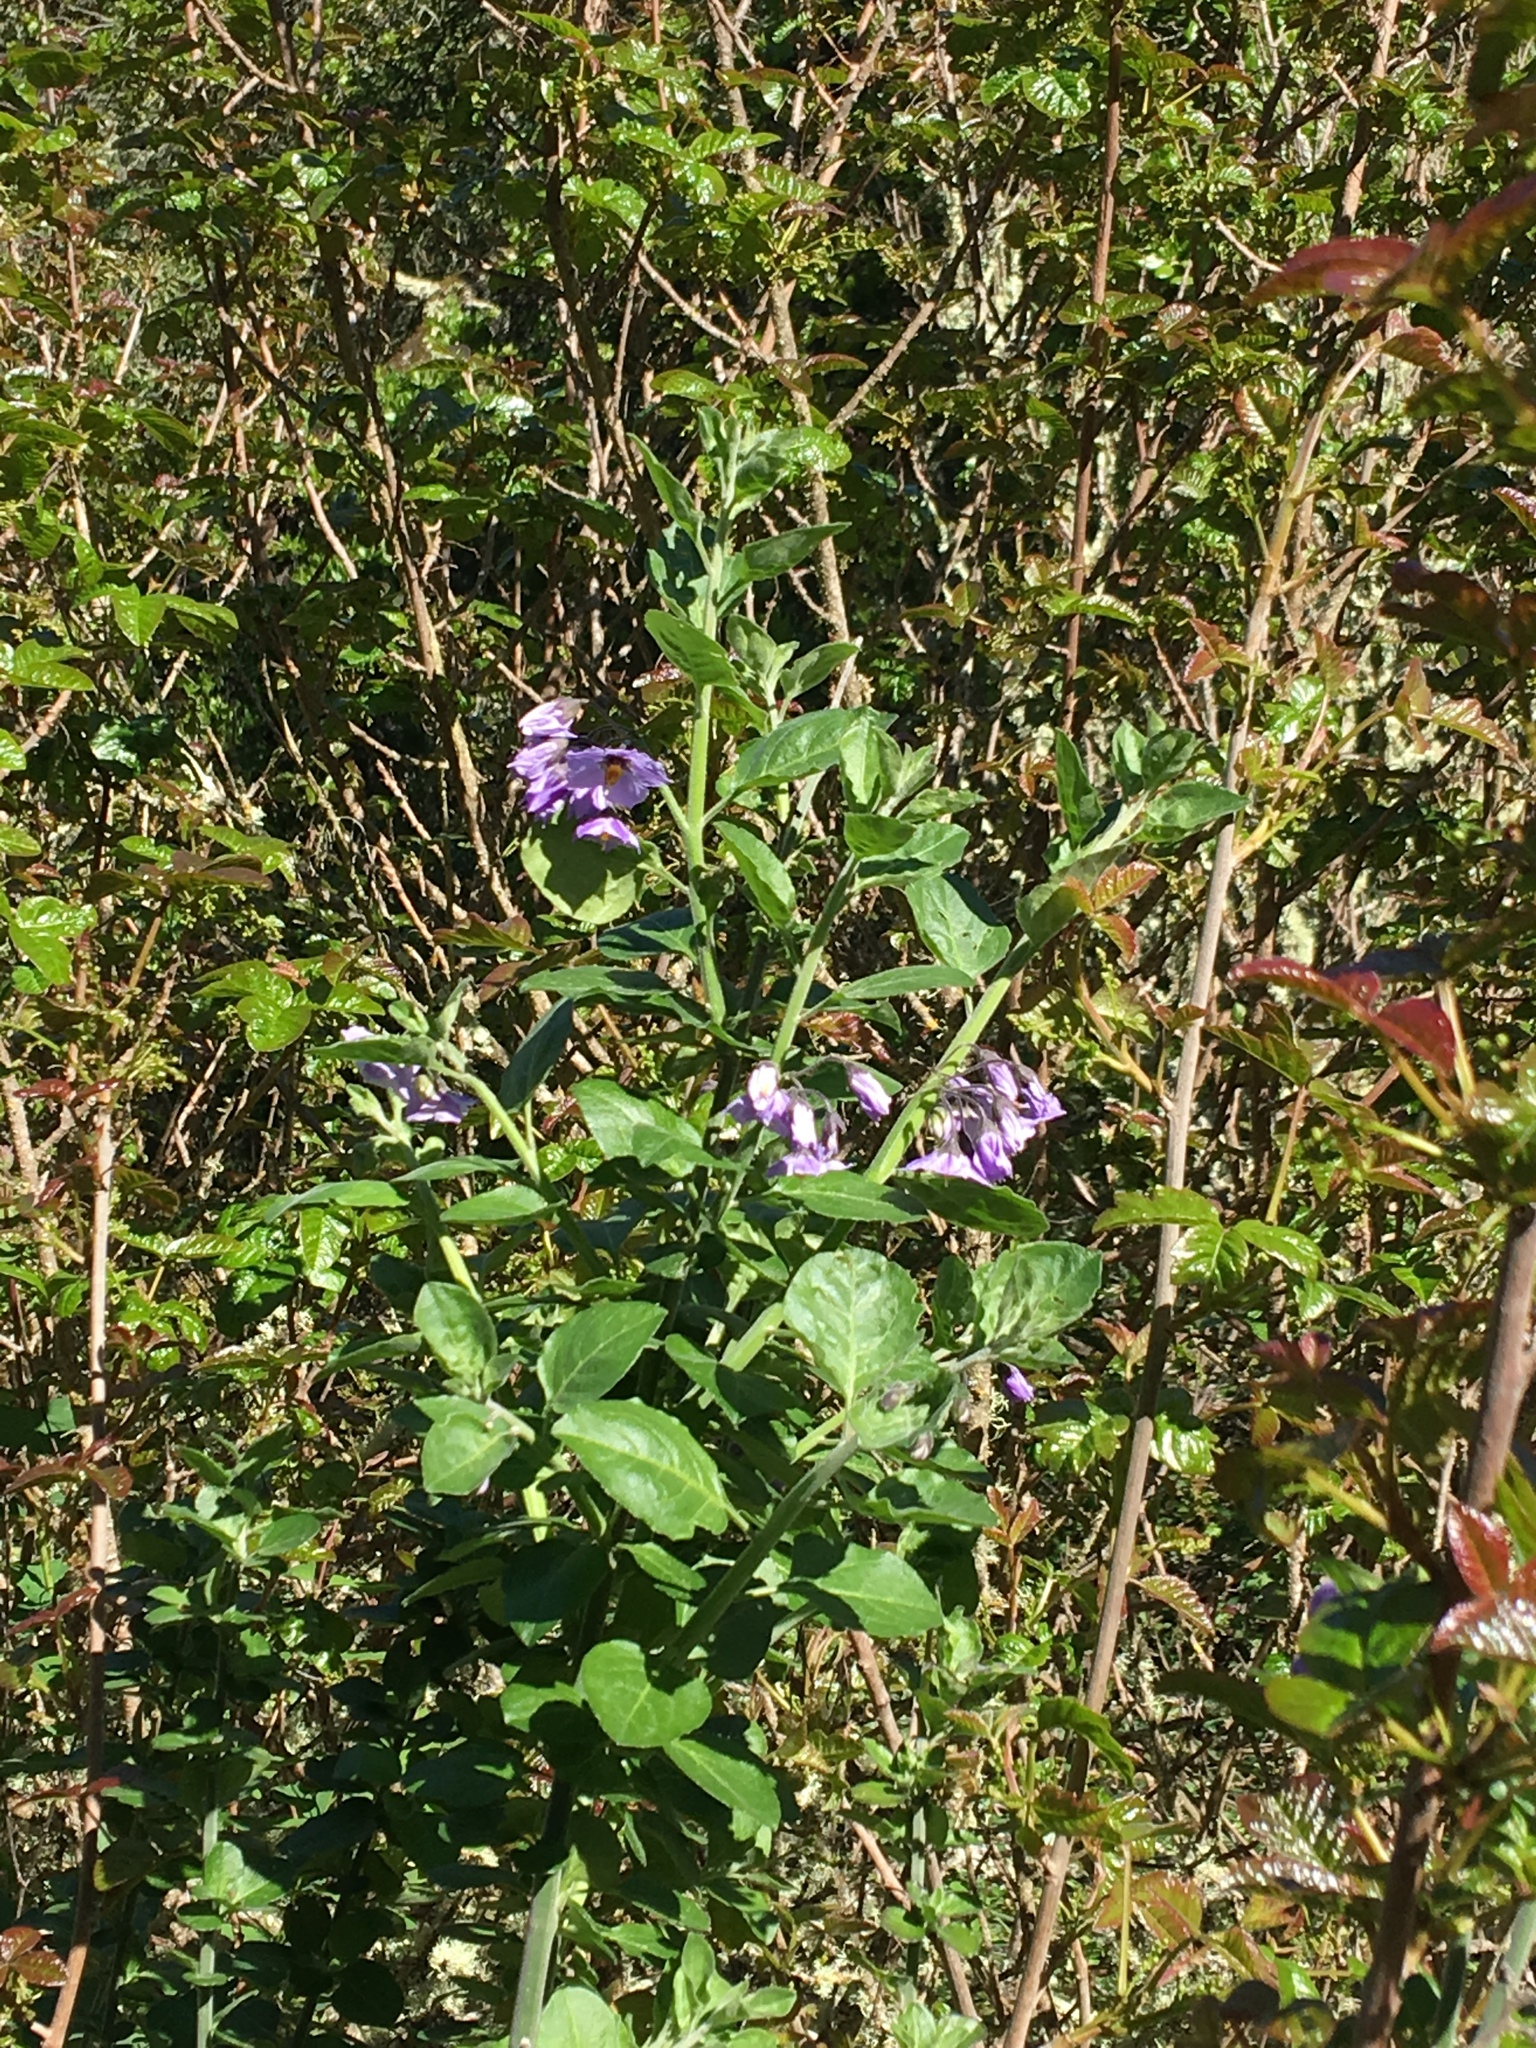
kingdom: Plantae
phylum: Tracheophyta
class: Magnoliopsida
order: Solanales
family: Solanaceae
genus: Solanum
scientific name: Solanum umbelliferum
